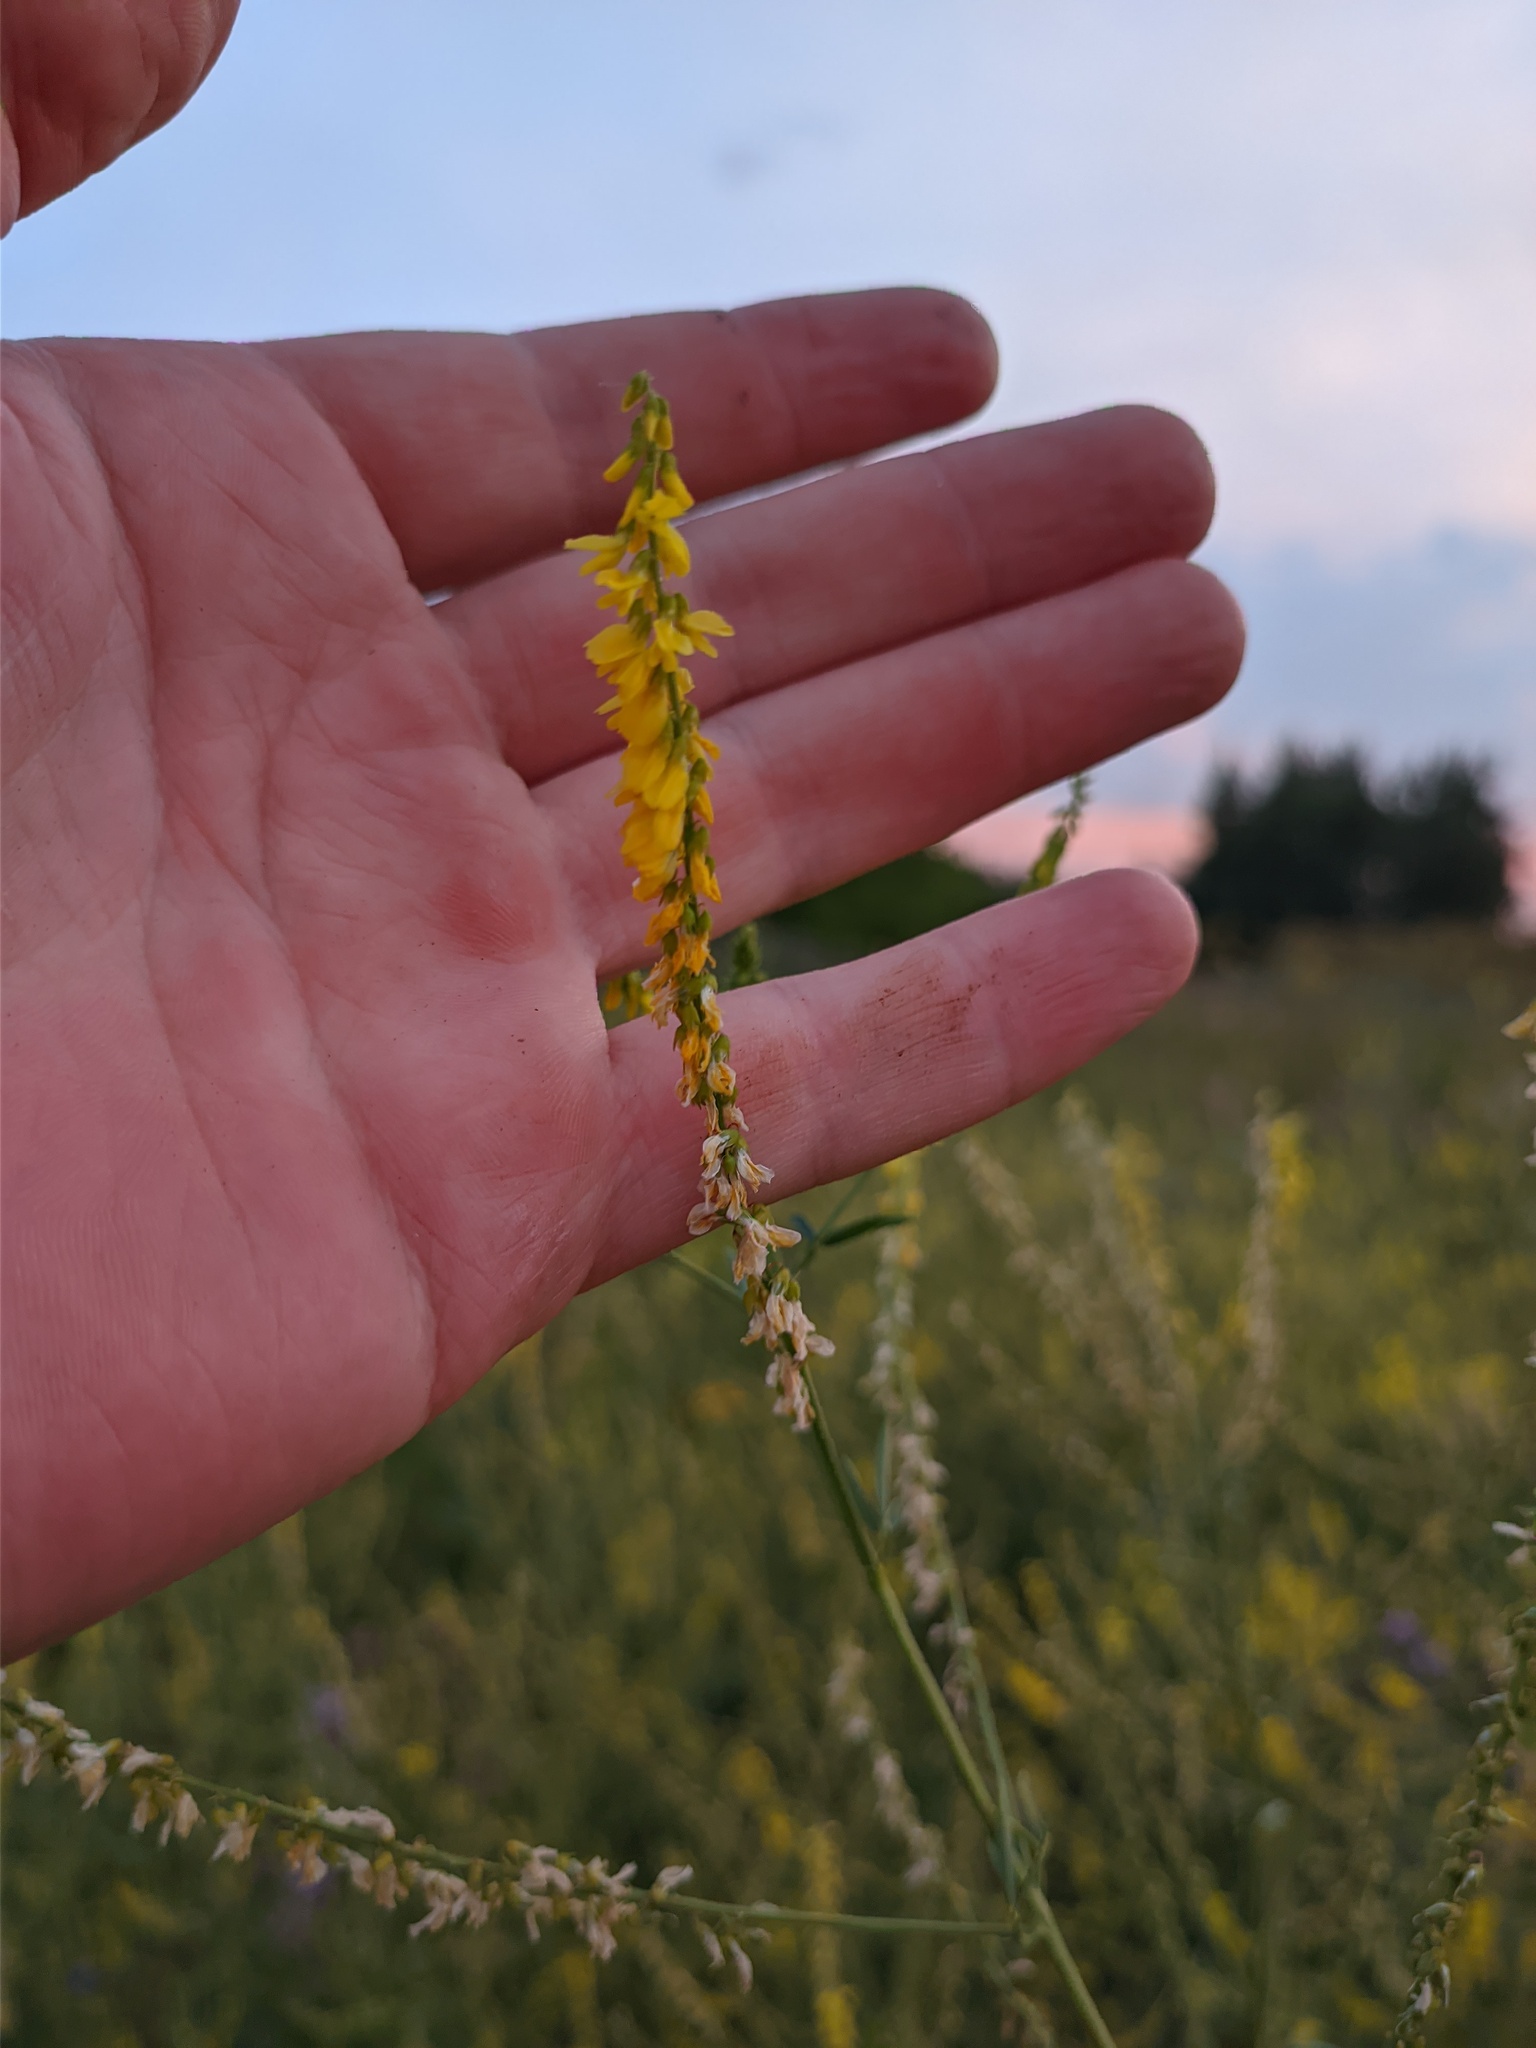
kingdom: Plantae
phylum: Tracheophyta
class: Magnoliopsida
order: Fabales
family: Fabaceae
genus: Melilotus
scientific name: Melilotus officinalis
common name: Sweetclover
